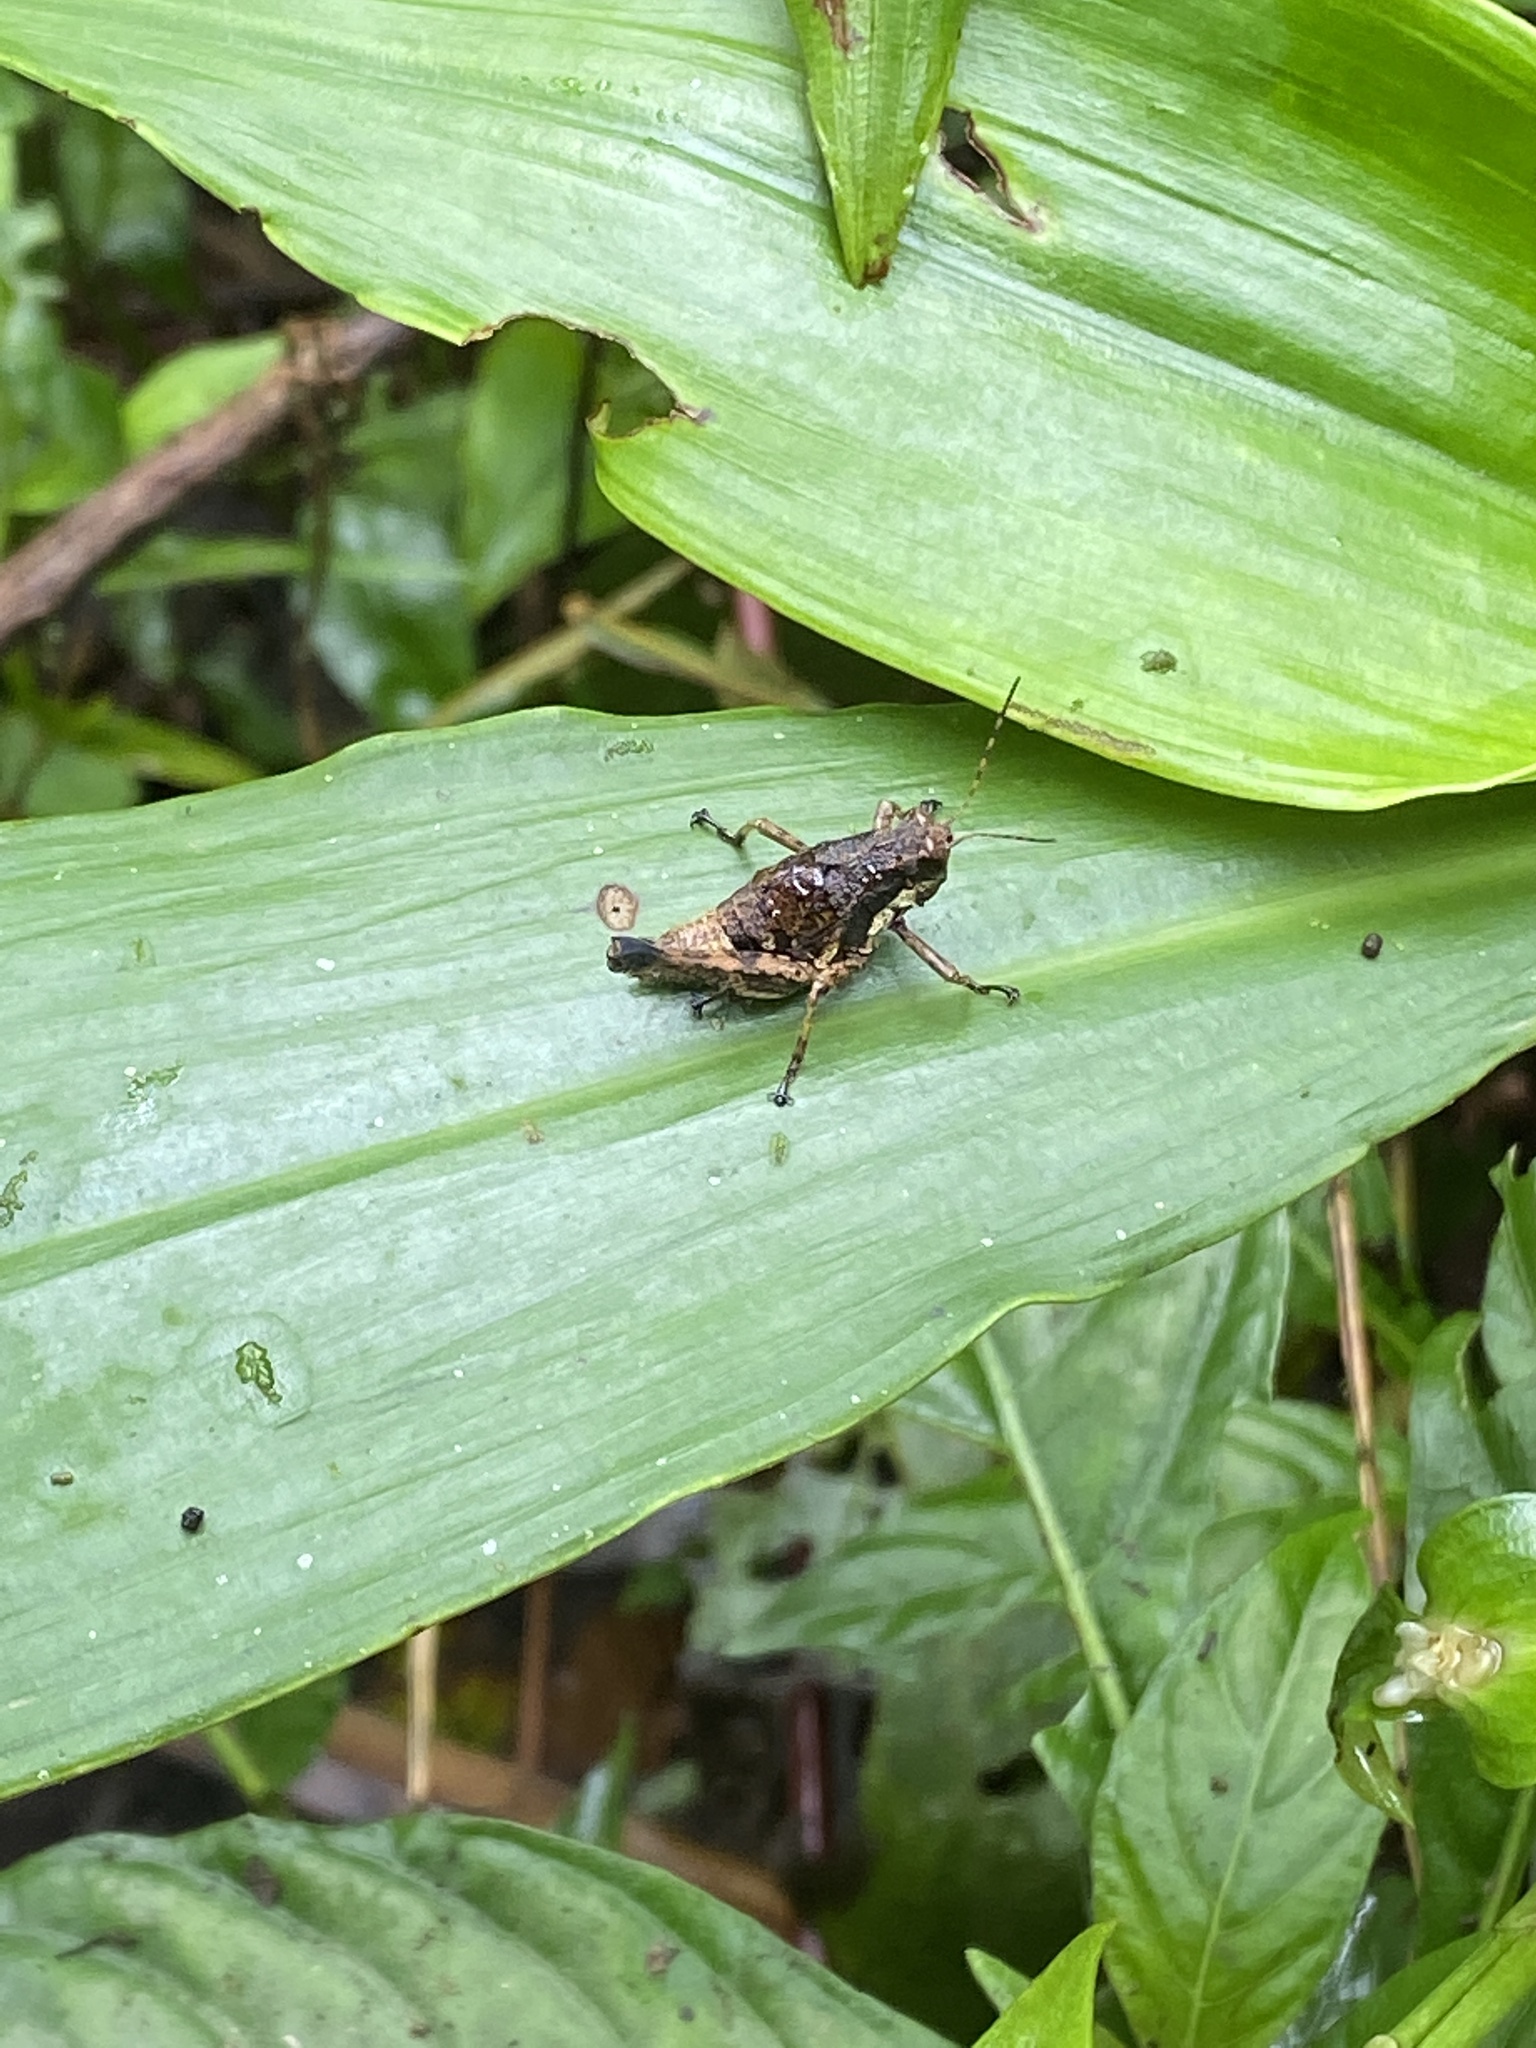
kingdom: Animalia
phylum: Arthropoda
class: Insecta
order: Orthoptera
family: Acrididae
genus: Rhachicreagra
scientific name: Rhachicreagra himantocerca
